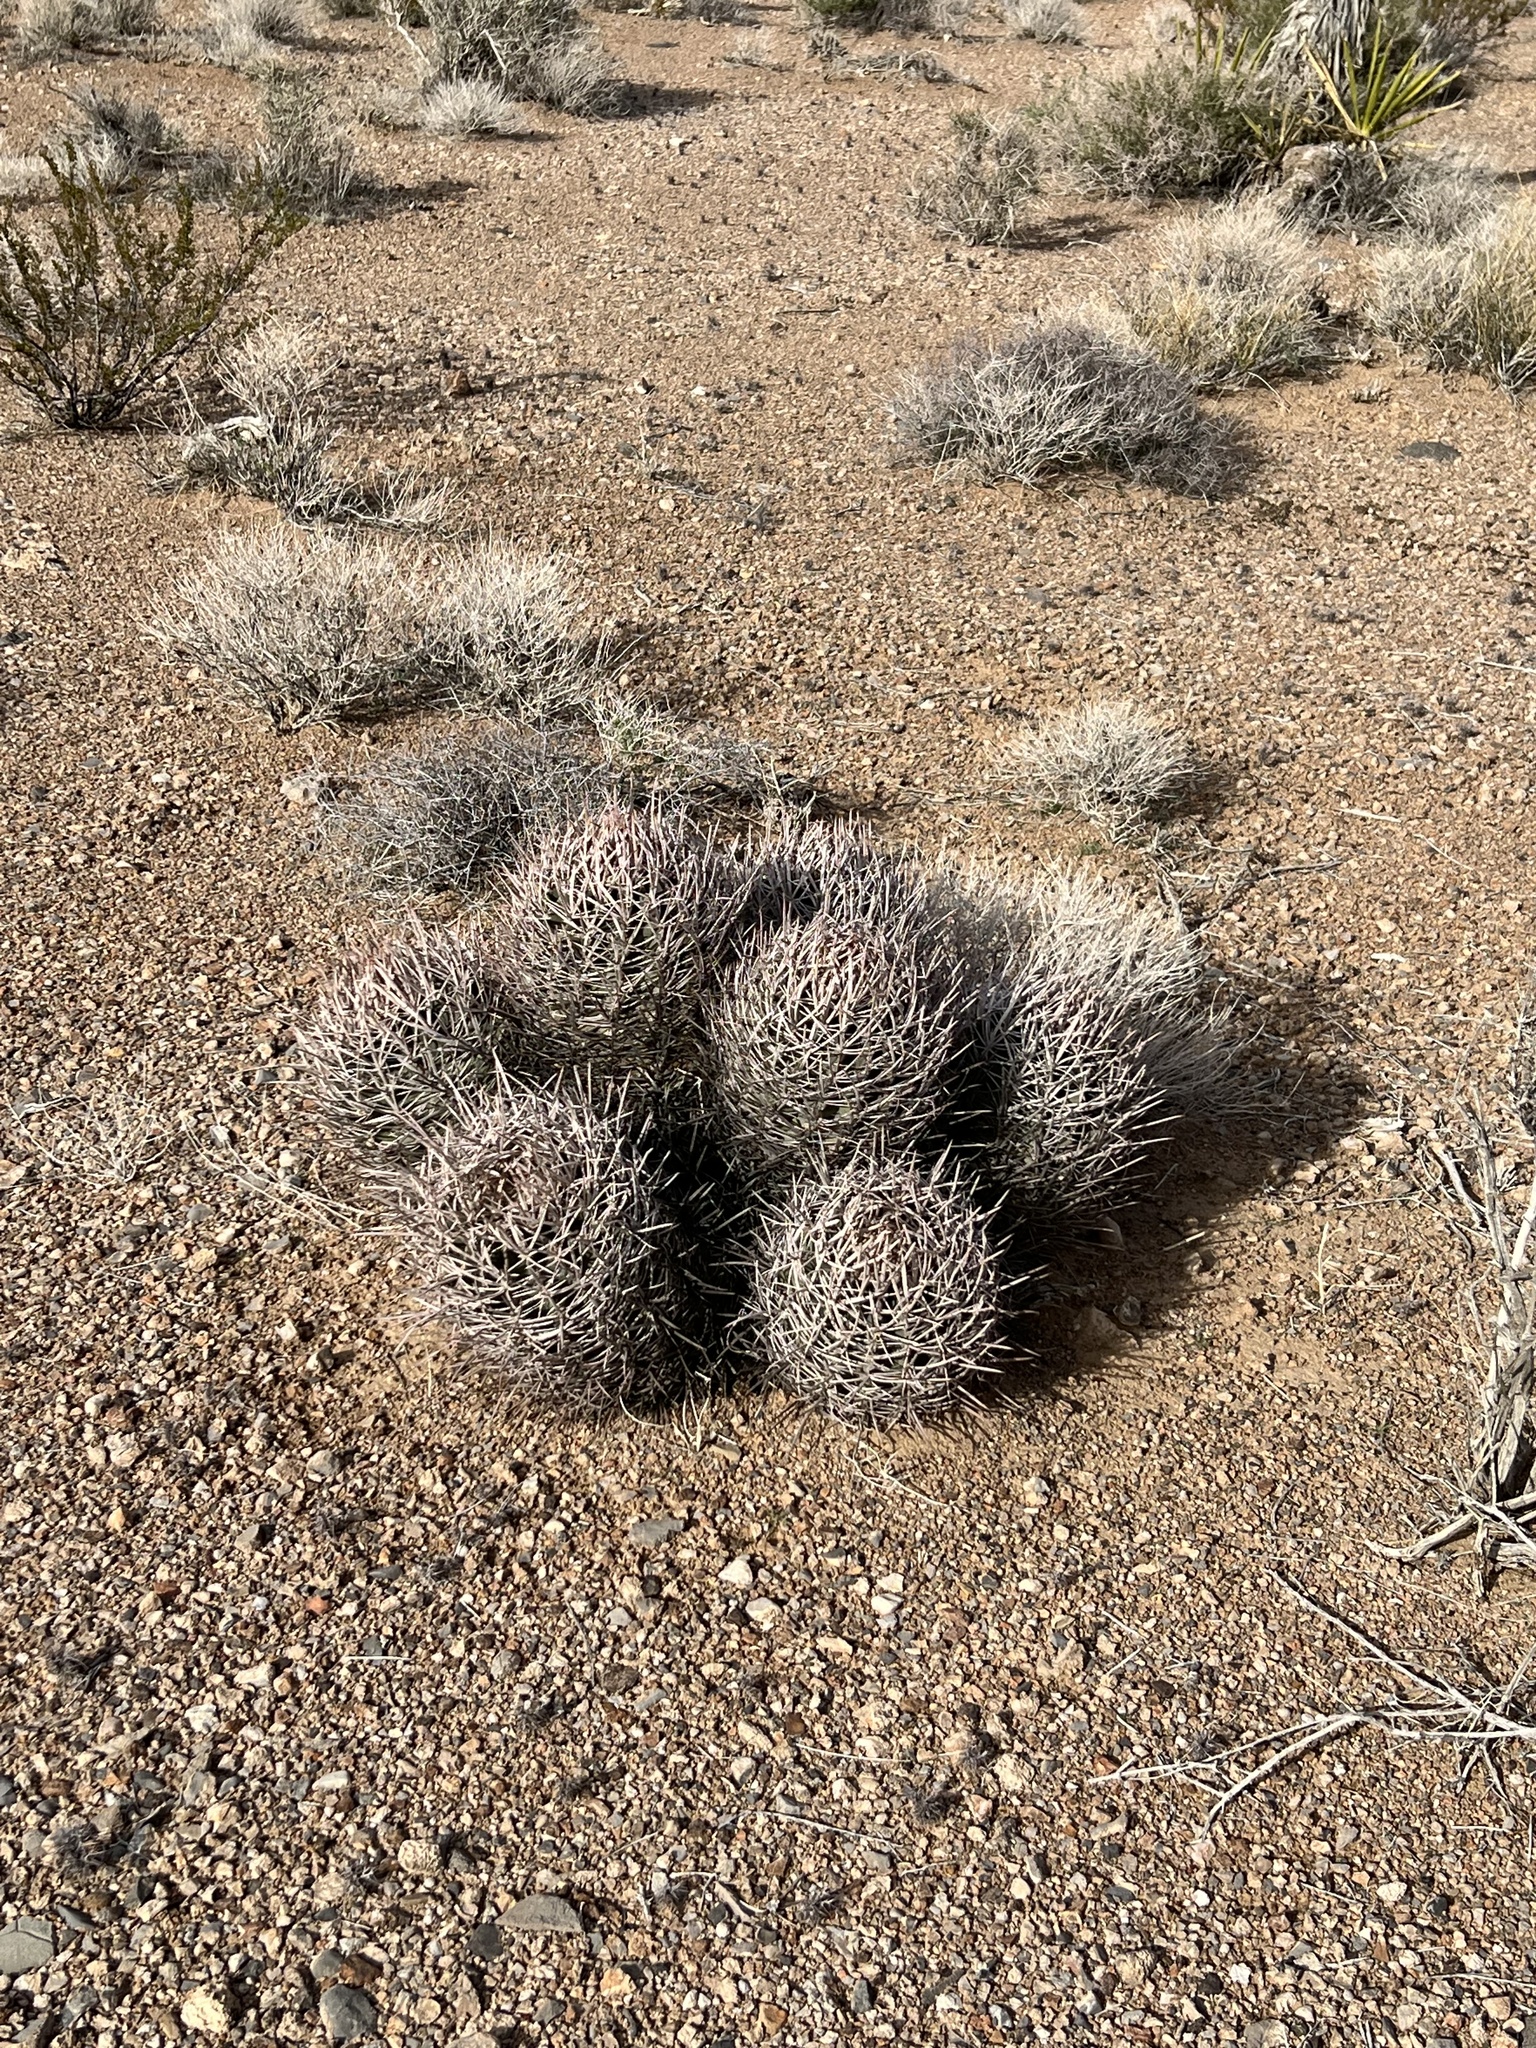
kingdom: Plantae
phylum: Tracheophyta
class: Magnoliopsida
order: Caryophyllales
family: Cactaceae
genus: Echinocactus
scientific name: Echinocactus polycephalus
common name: Cottontop cactus
